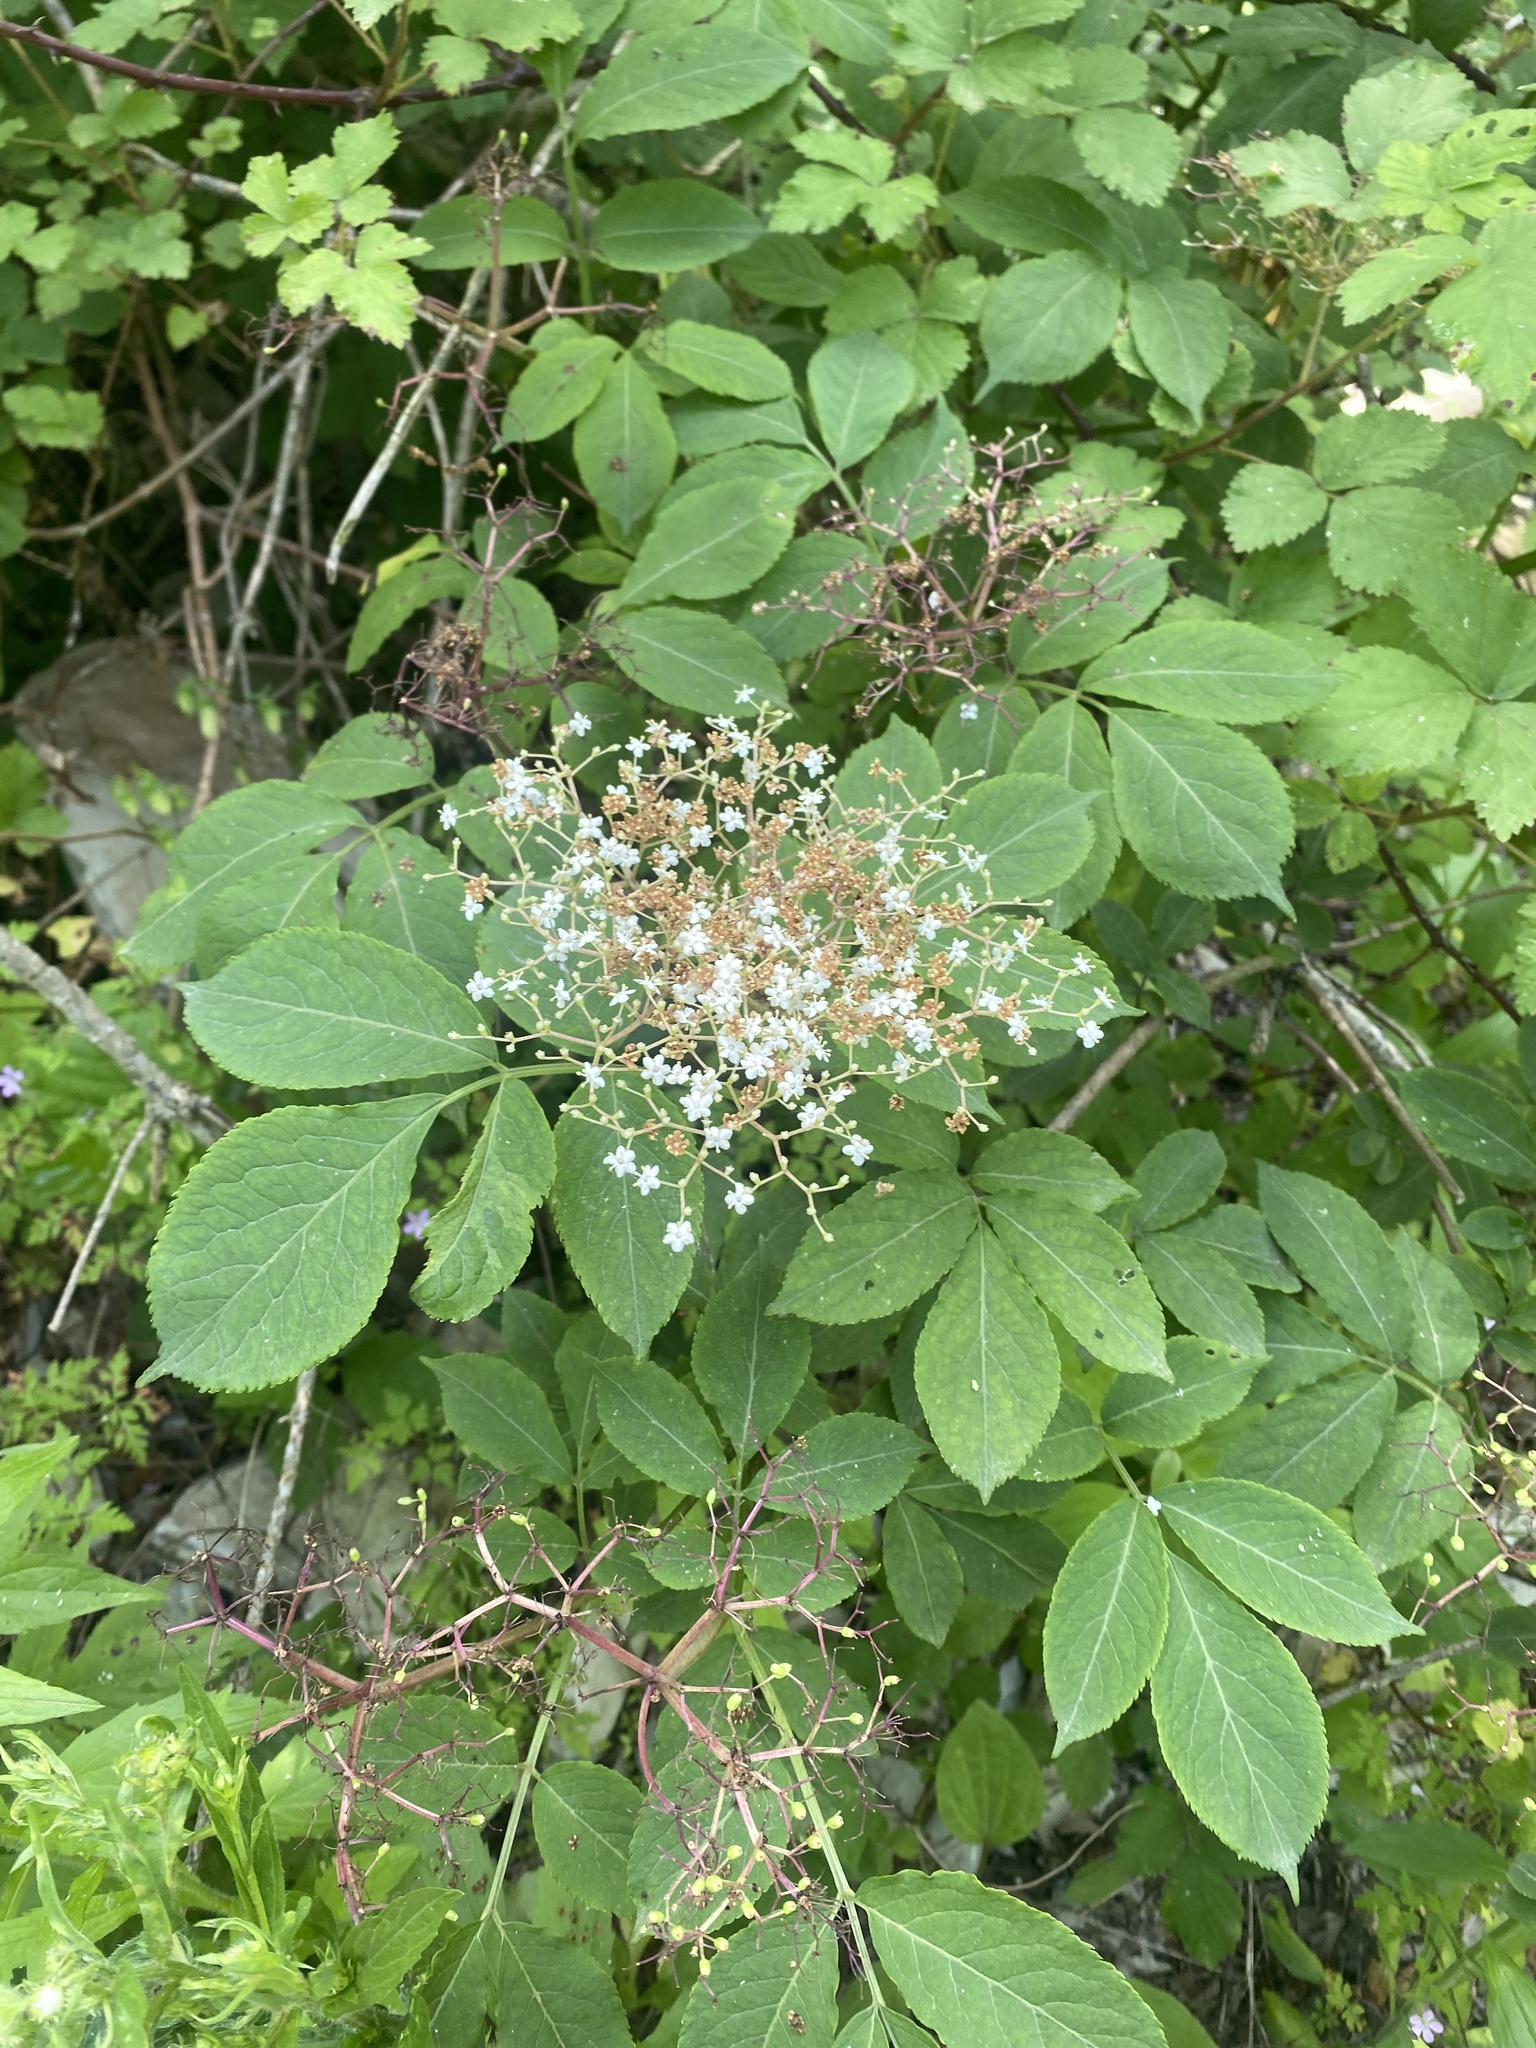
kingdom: Plantae
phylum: Tracheophyta
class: Magnoliopsida
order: Dipsacales
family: Viburnaceae
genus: Sambucus
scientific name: Sambucus nigra
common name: Elder
